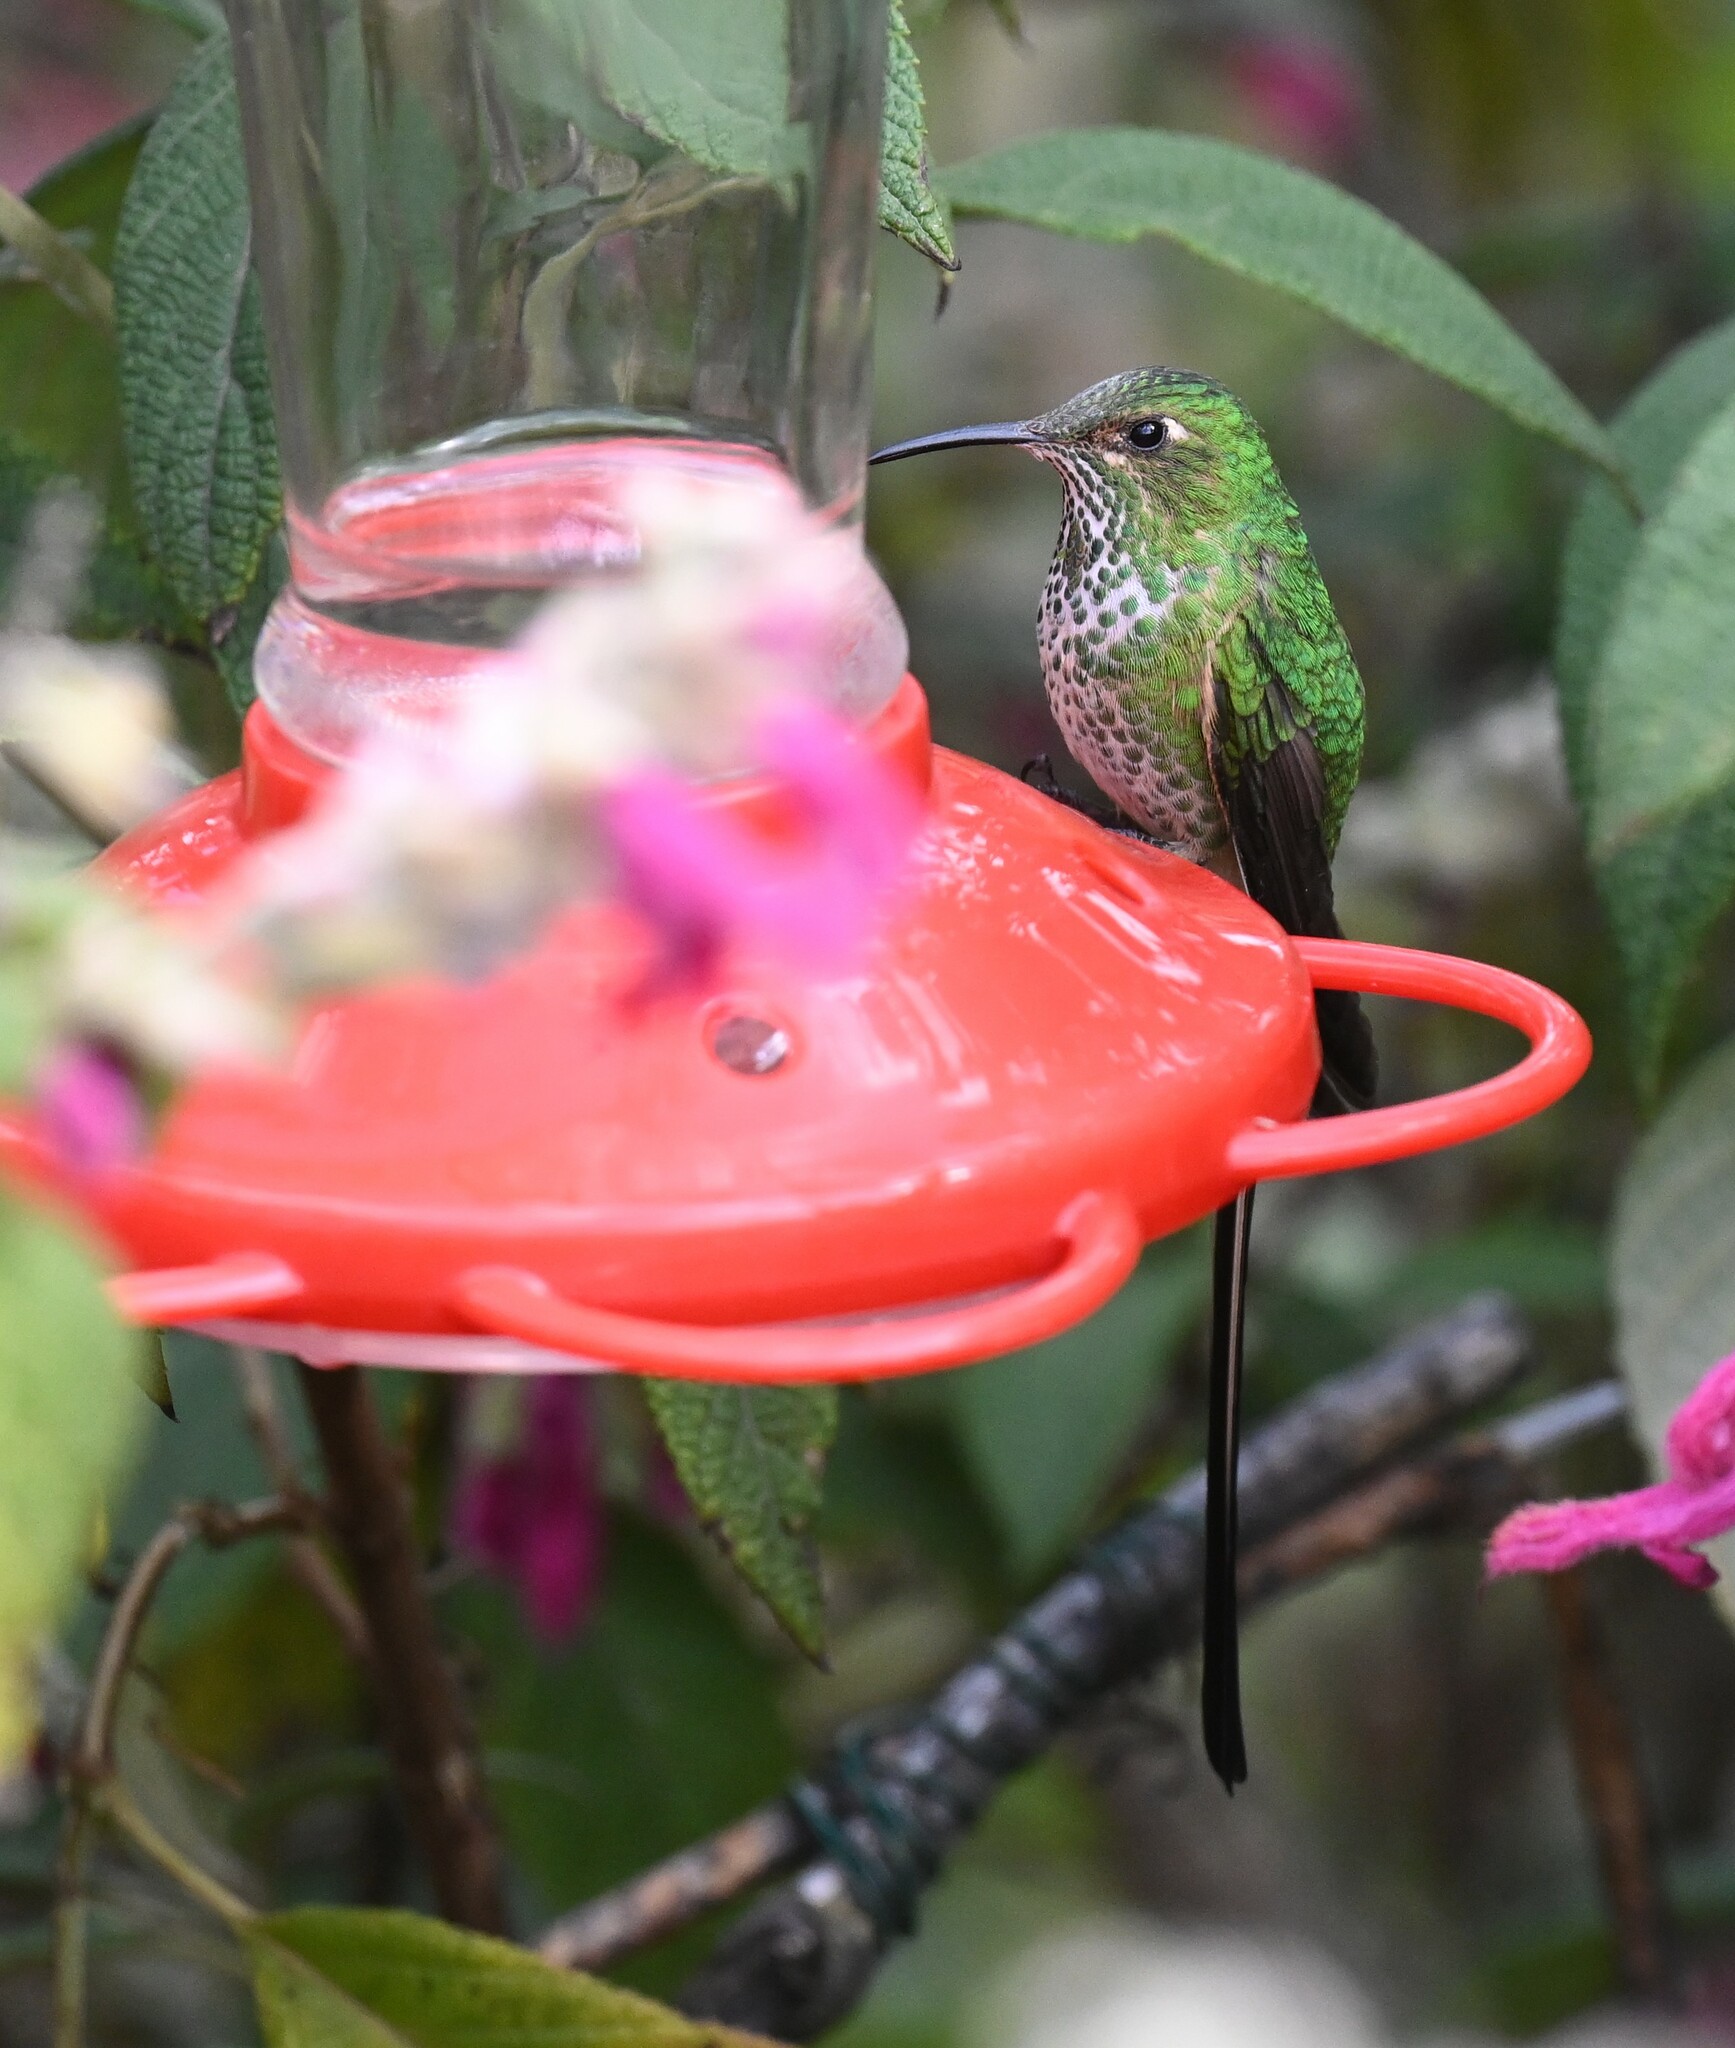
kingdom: Animalia
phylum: Chordata
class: Aves
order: Apodiformes
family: Trochilidae
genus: Lesbia
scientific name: Lesbia victoriae
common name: Black-tailed trainbearer
